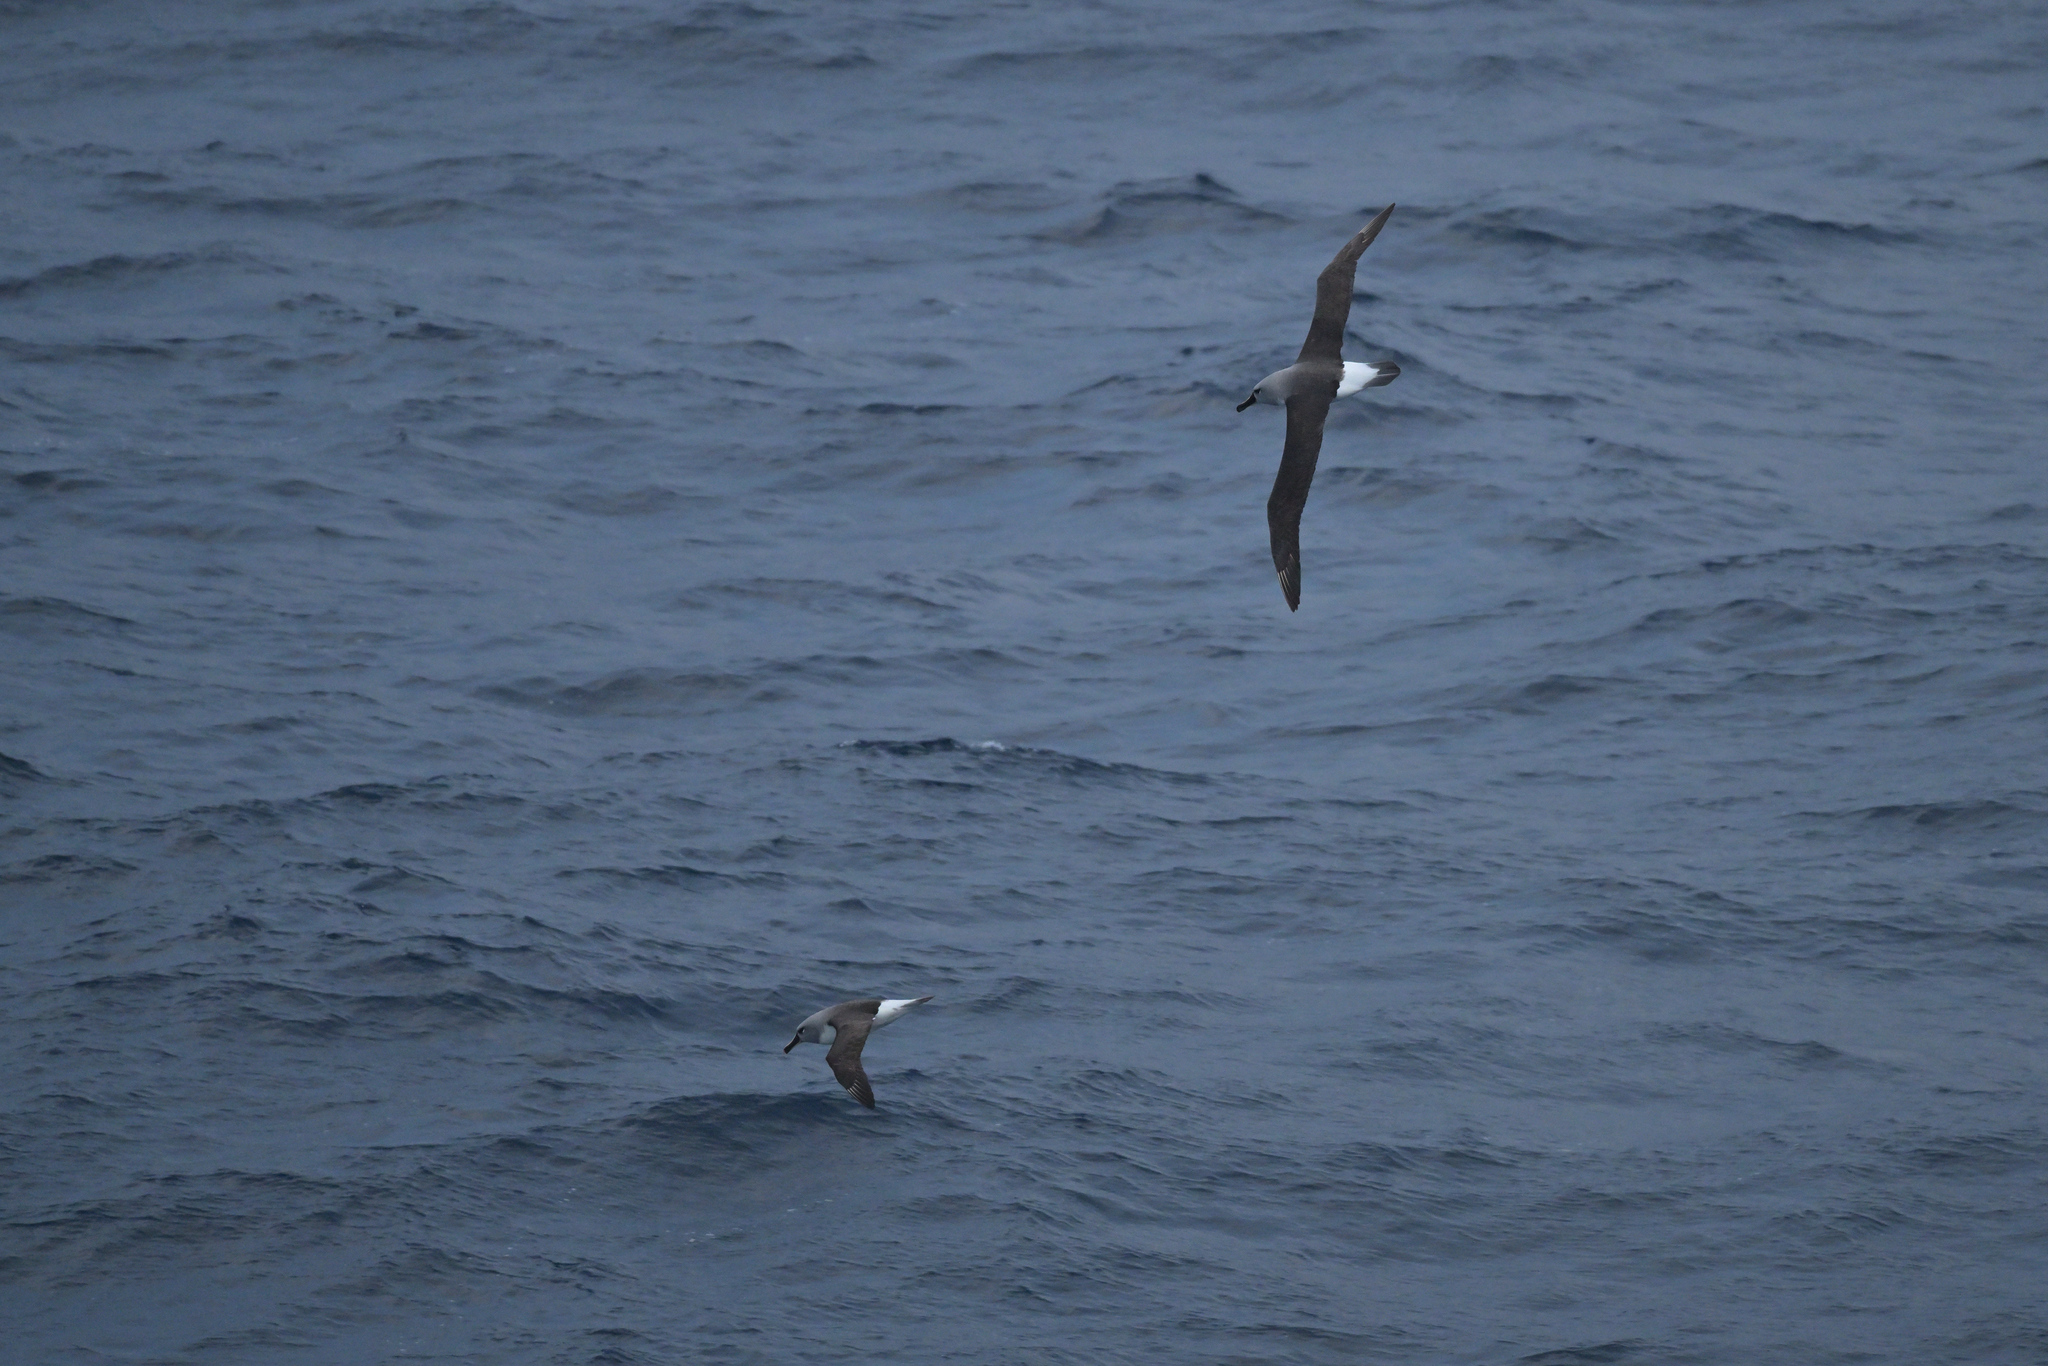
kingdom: Animalia
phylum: Chordata
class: Aves
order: Procellariiformes
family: Diomedeidae
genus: Thalassarche
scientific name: Thalassarche chrysostoma
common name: Grey-headed albatross
